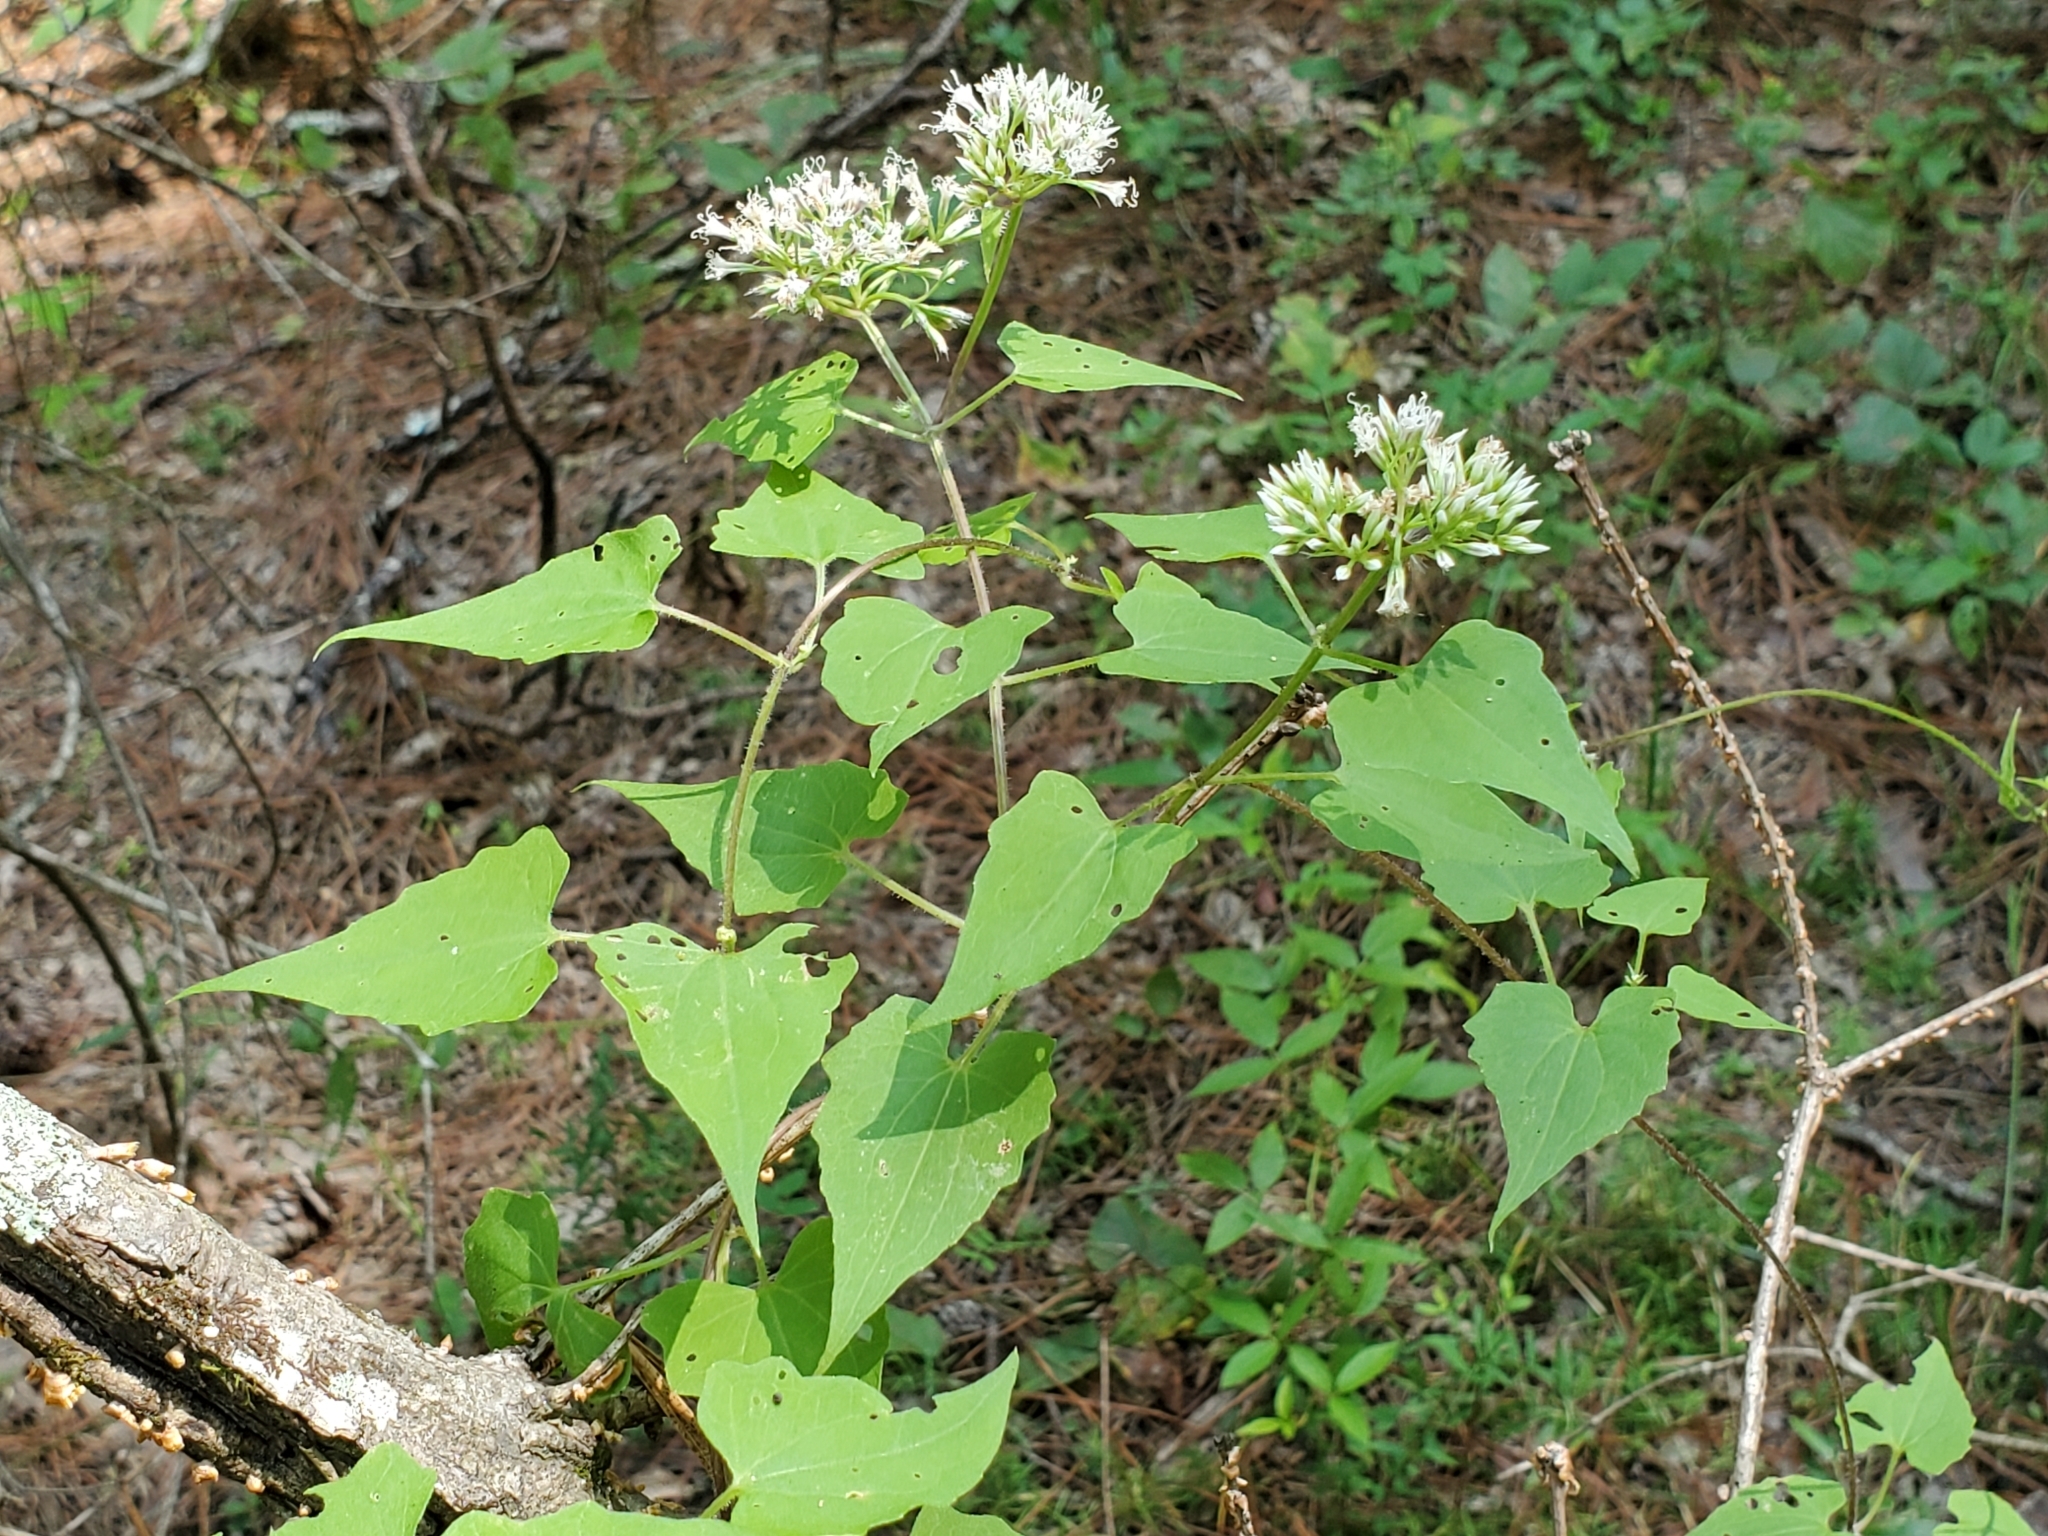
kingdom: Plantae
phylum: Tracheophyta
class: Magnoliopsida
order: Asterales
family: Asteraceae
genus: Mikania
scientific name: Mikania scandens
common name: Climbing hempvine
